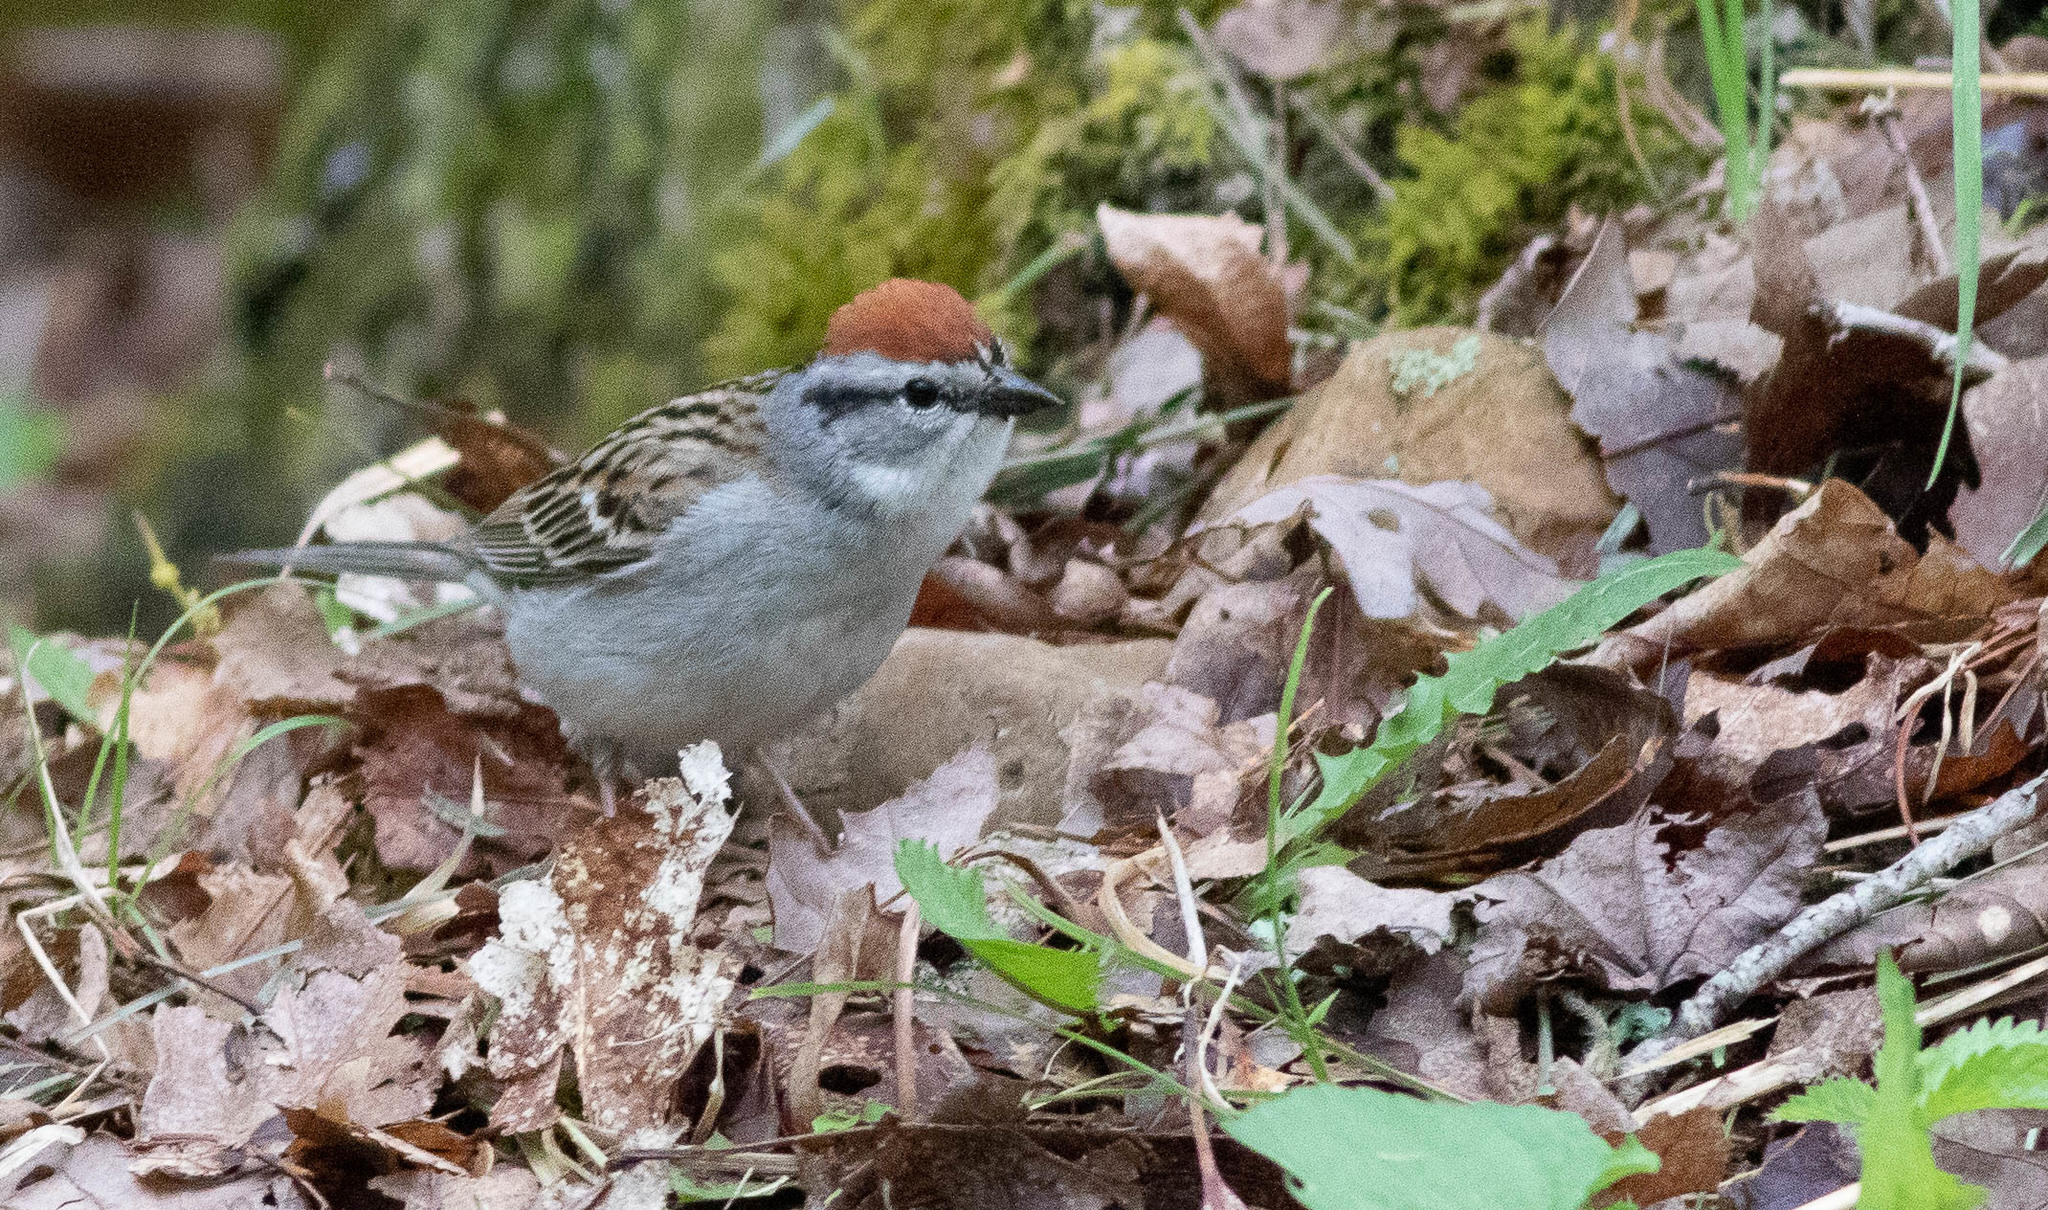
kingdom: Animalia
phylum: Chordata
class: Aves
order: Passeriformes
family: Passerellidae
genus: Spizella
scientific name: Spizella passerina
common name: Chipping sparrow
